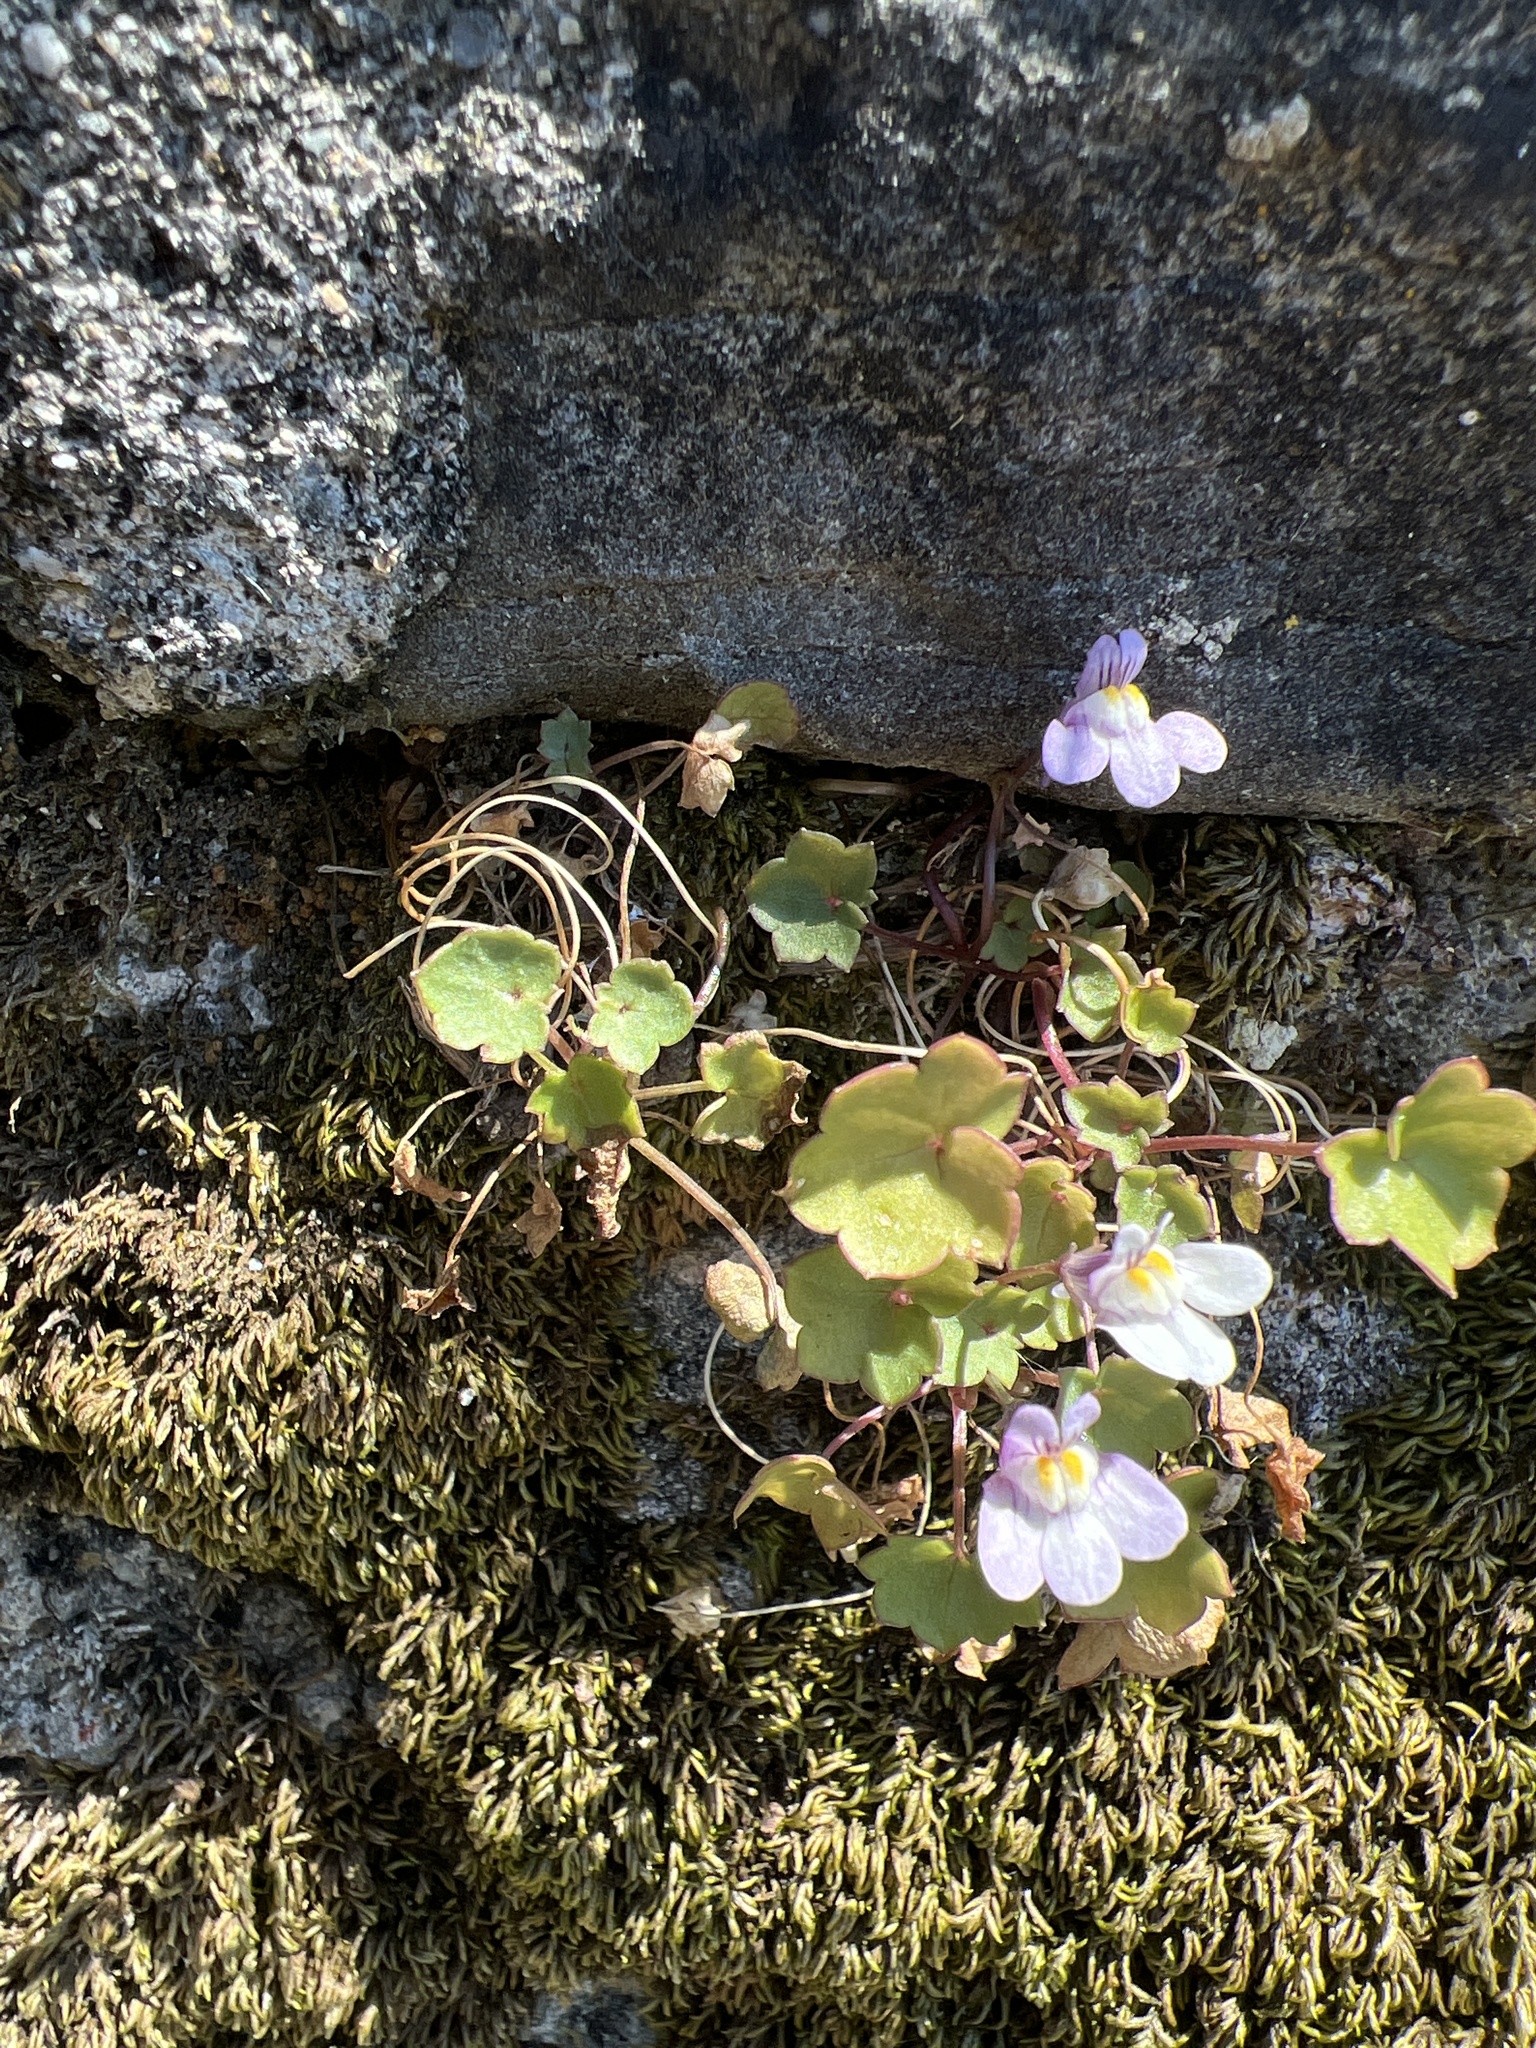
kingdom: Plantae
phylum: Tracheophyta
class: Magnoliopsida
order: Lamiales
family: Plantaginaceae
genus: Cymbalaria
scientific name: Cymbalaria muralis
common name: Ivy-leaved toadflax
